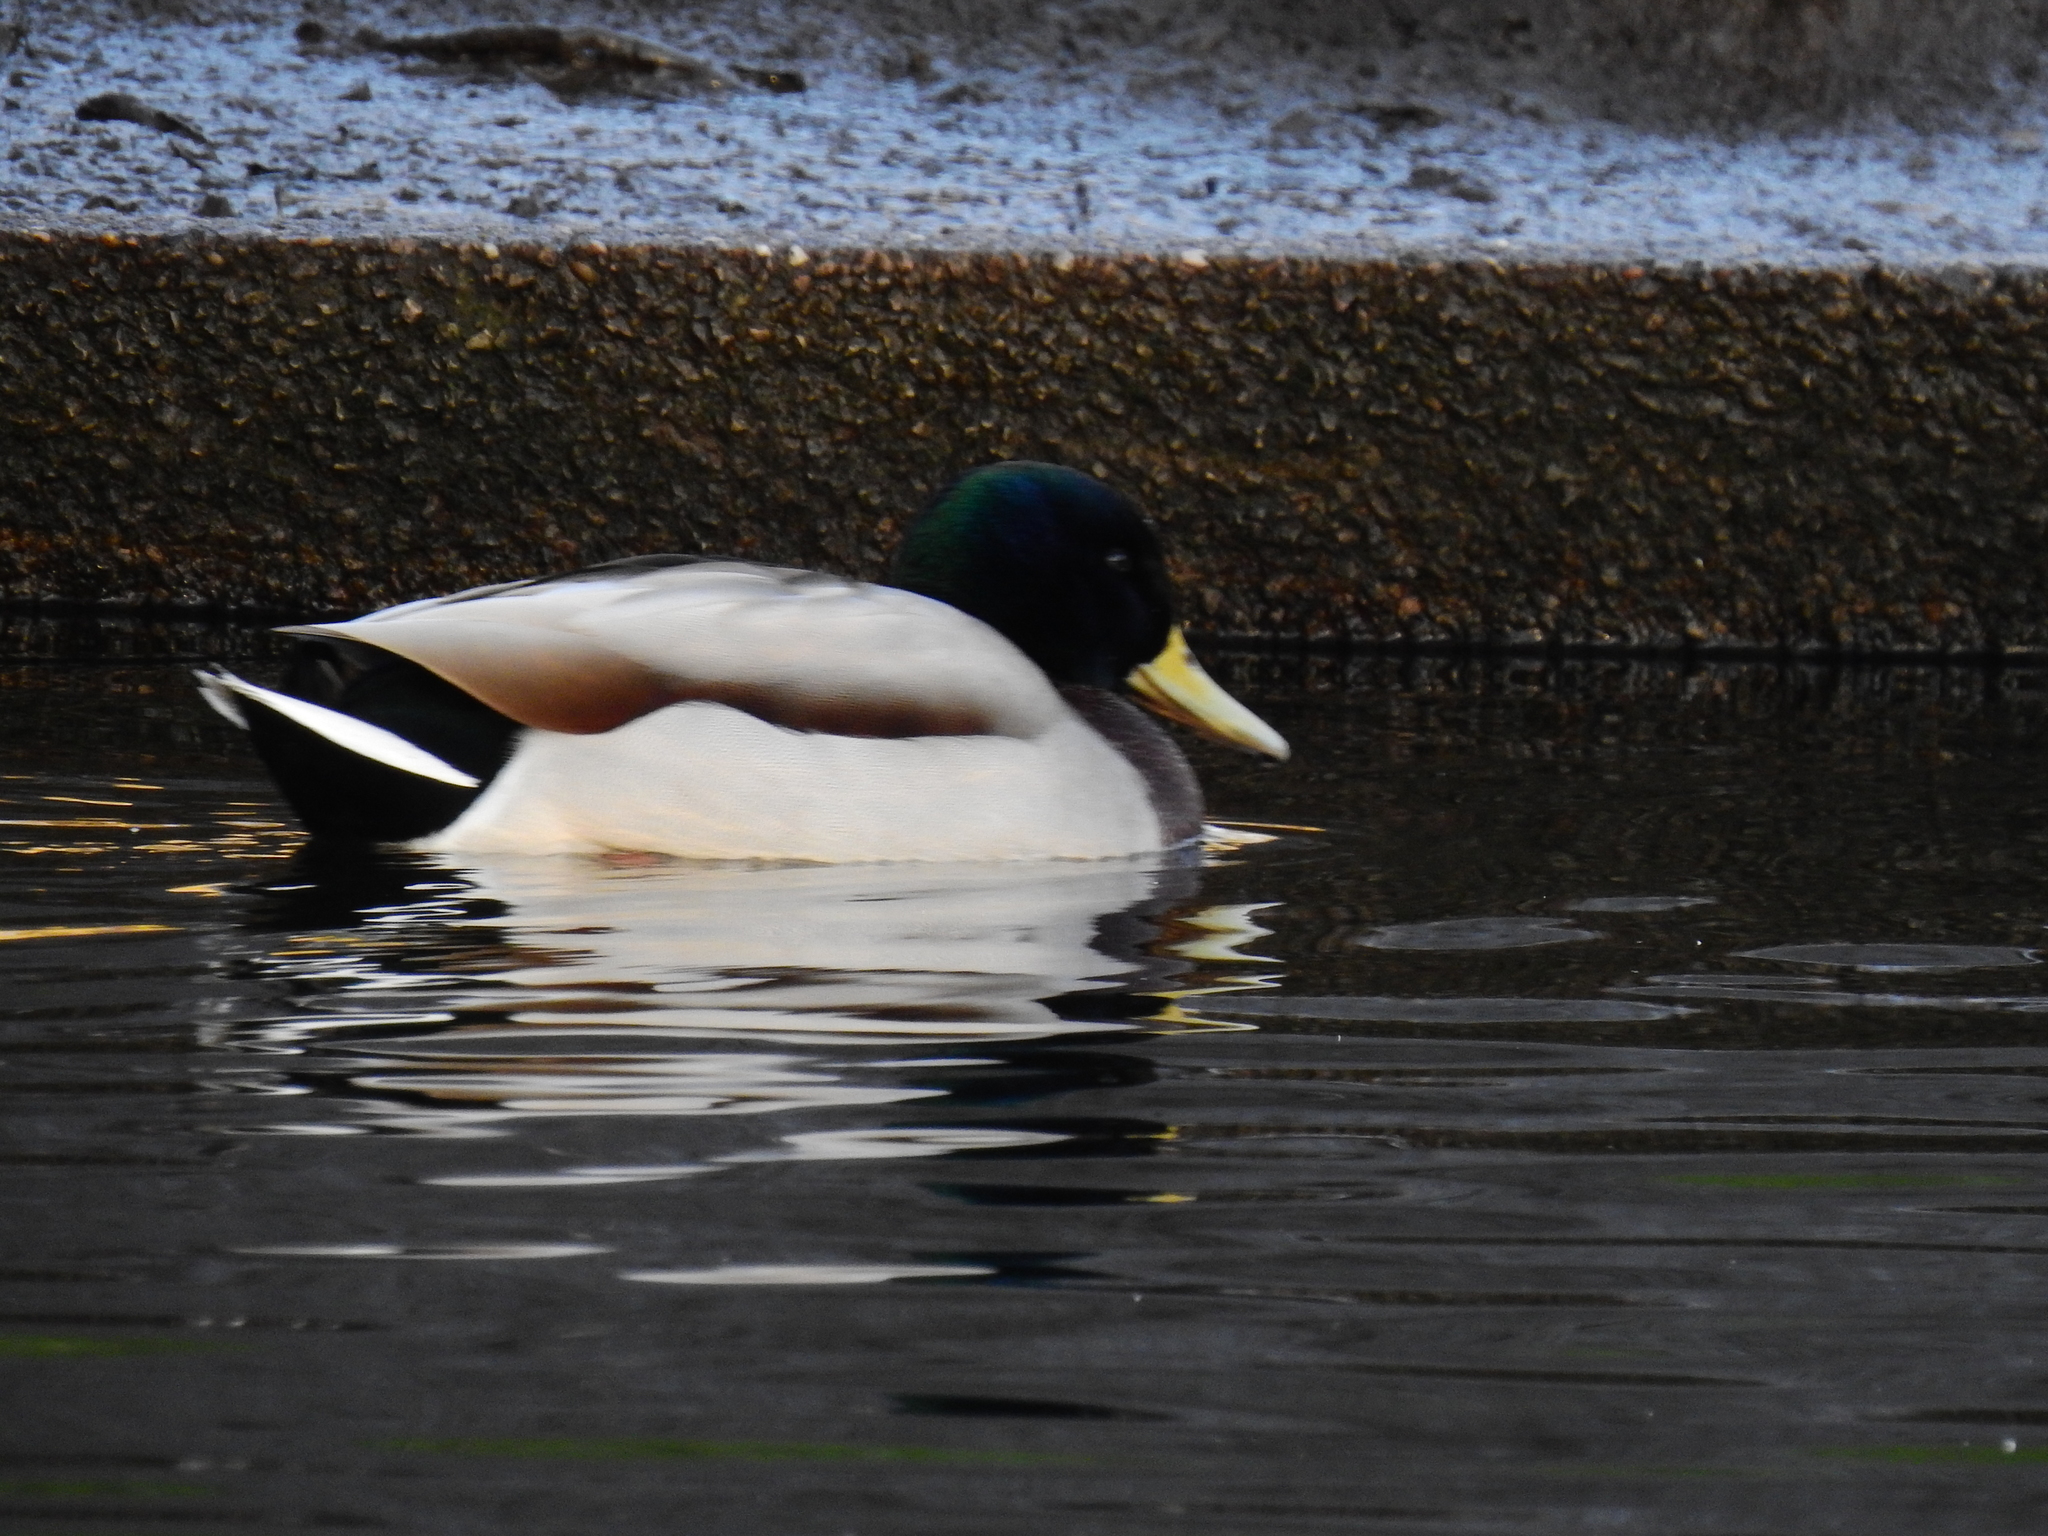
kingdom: Animalia
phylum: Chordata
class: Aves
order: Anseriformes
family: Anatidae
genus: Anas
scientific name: Anas platyrhynchos
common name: Mallard
